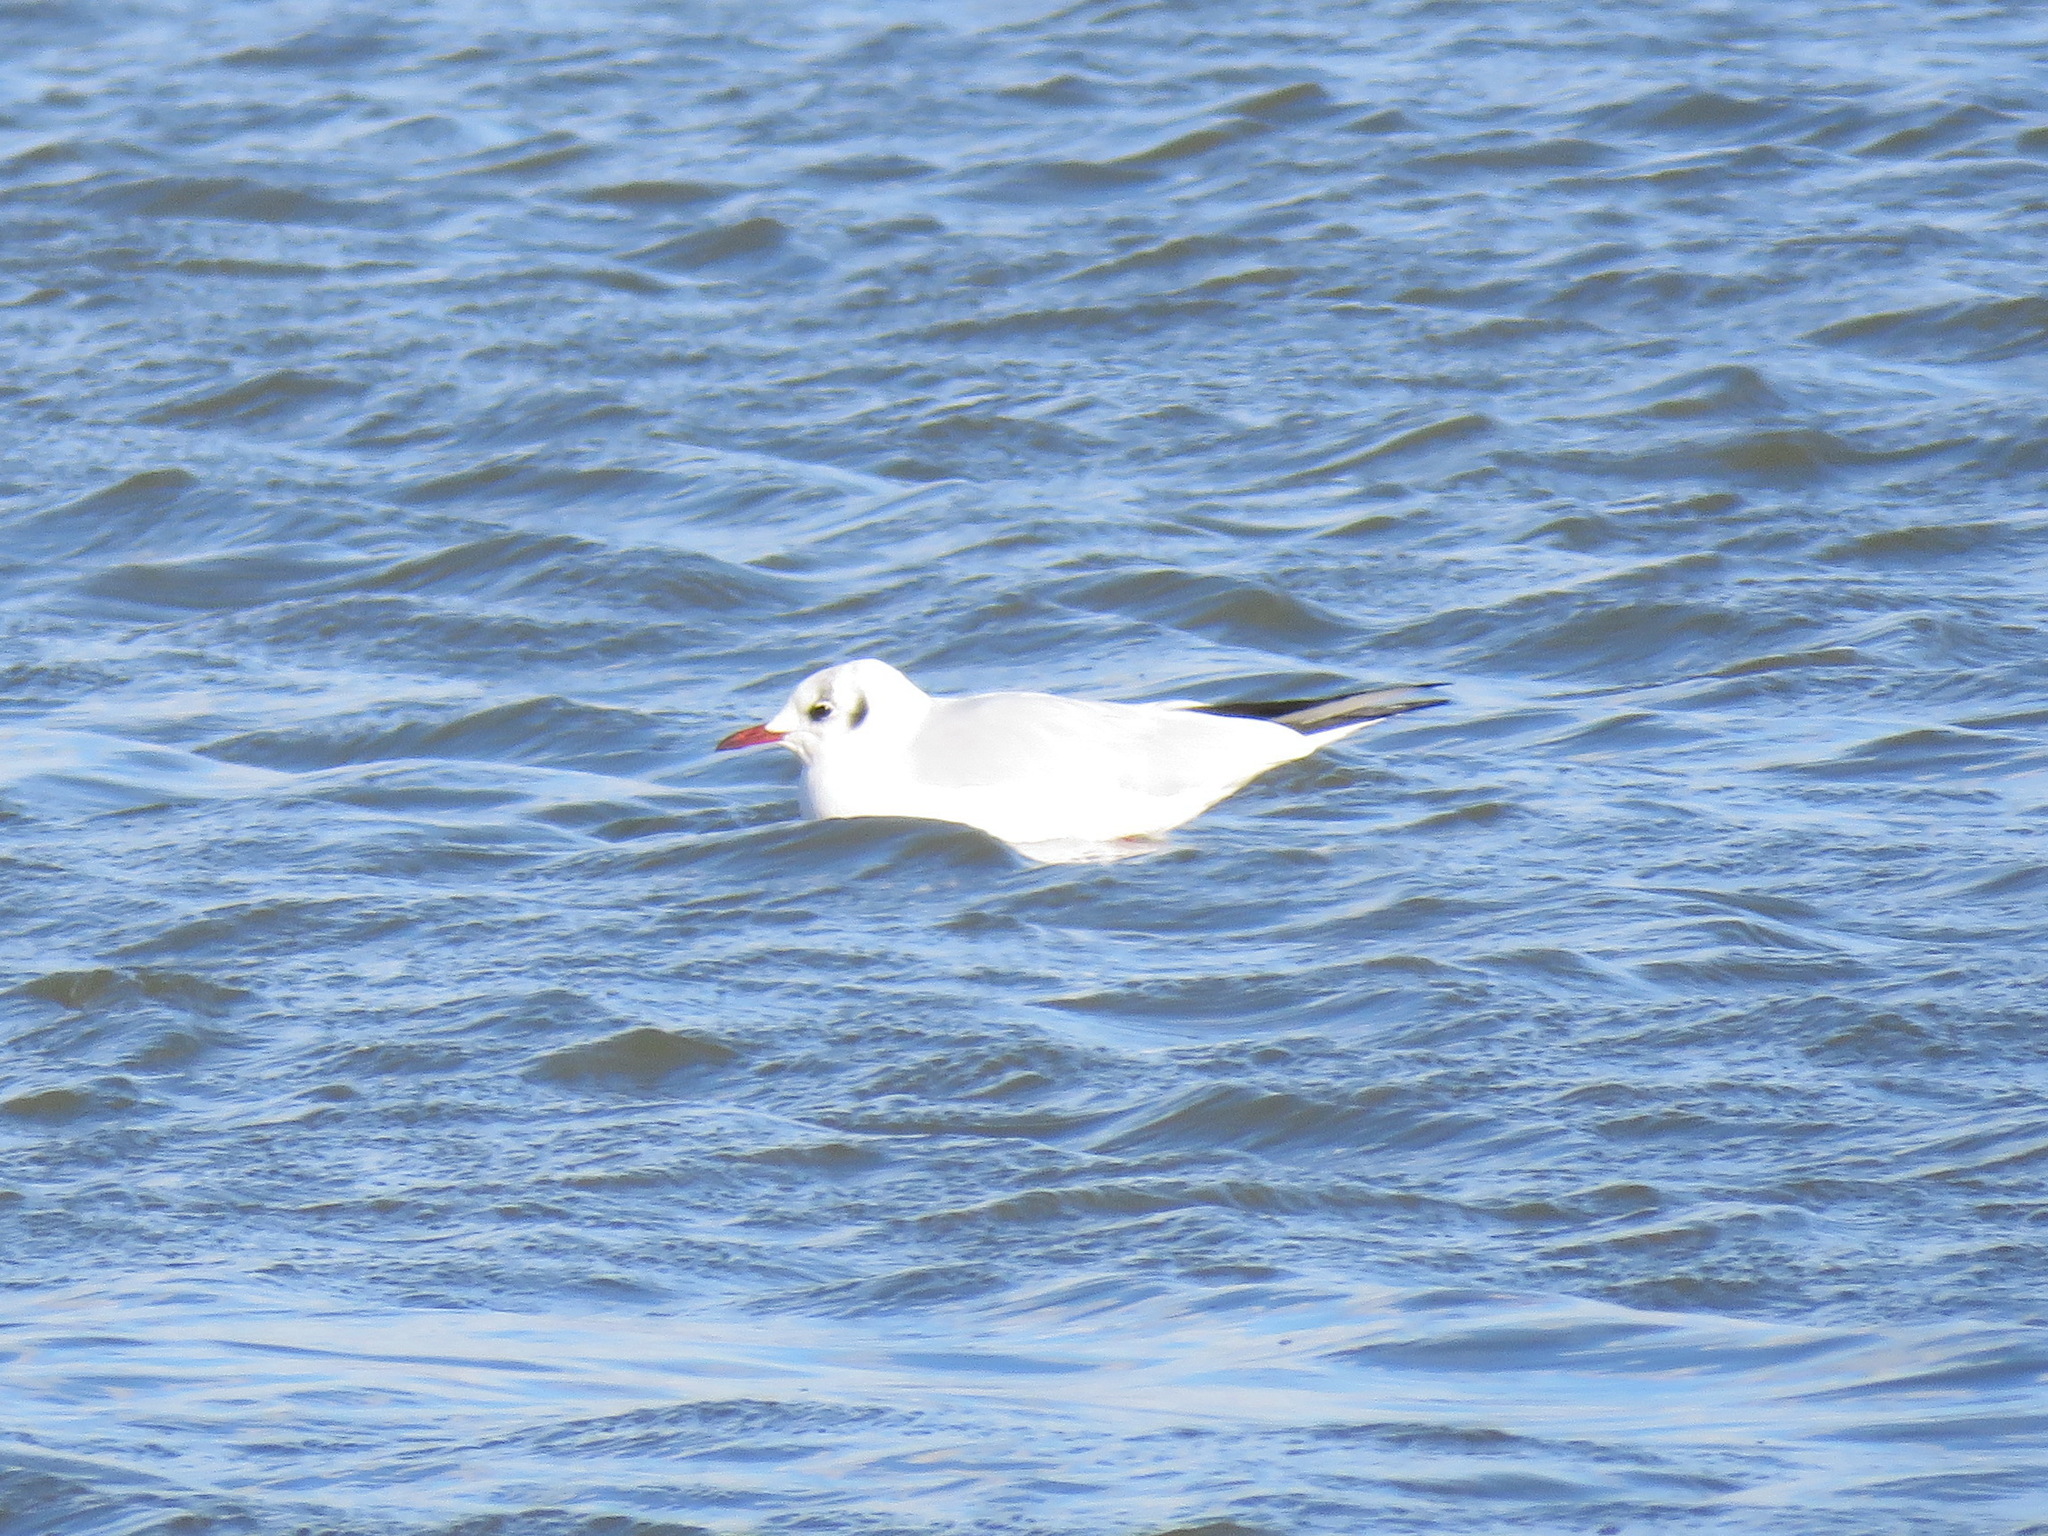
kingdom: Animalia
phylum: Chordata
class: Aves
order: Charadriiformes
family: Laridae
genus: Chroicocephalus
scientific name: Chroicocephalus ridibundus
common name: Black-headed gull
